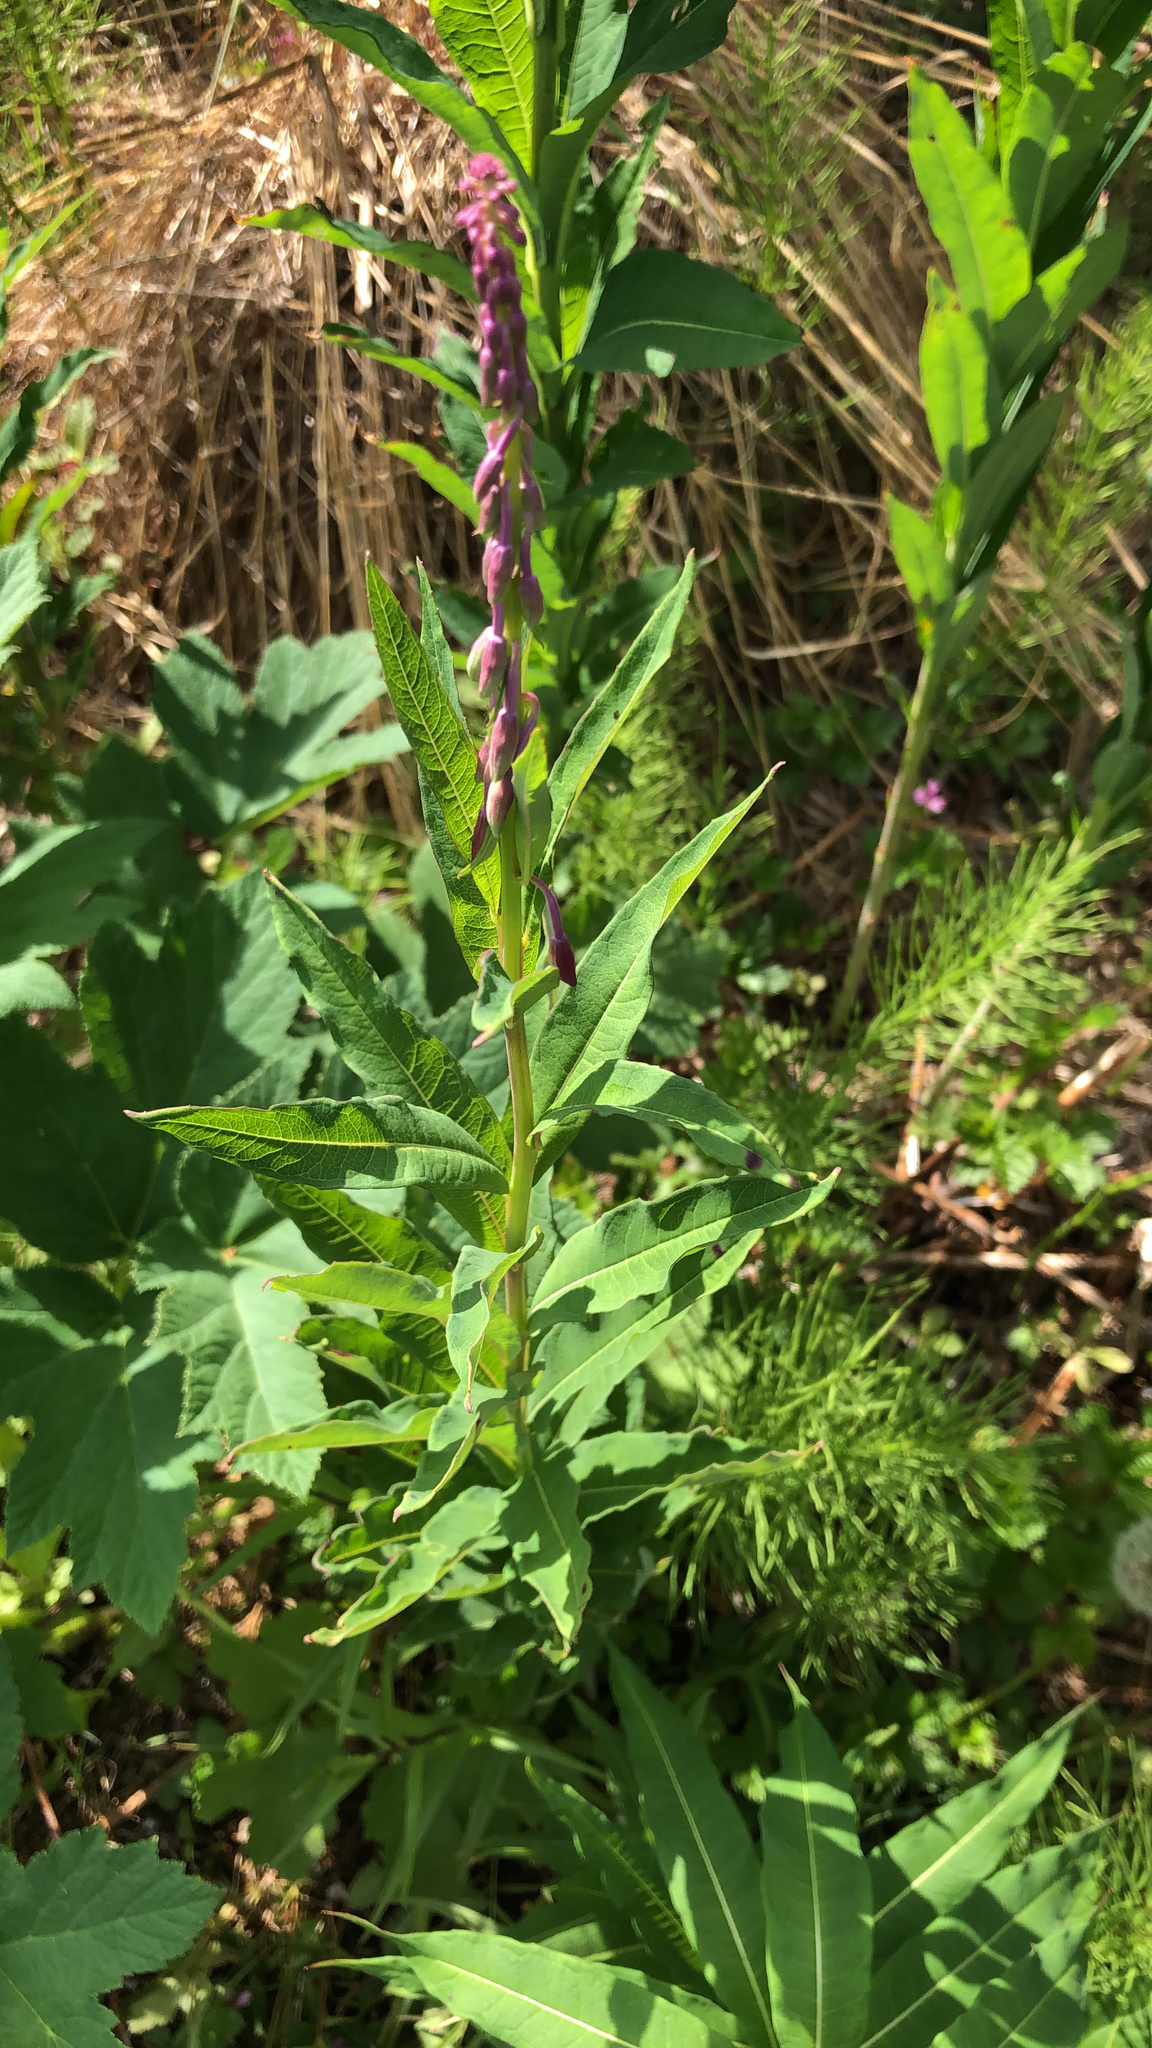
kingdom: Plantae
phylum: Tracheophyta
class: Magnoliopsida
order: Myrtales
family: Onagraceae
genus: Chamaenerion
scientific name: Chamaenerion angustifolium
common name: Fireweed
